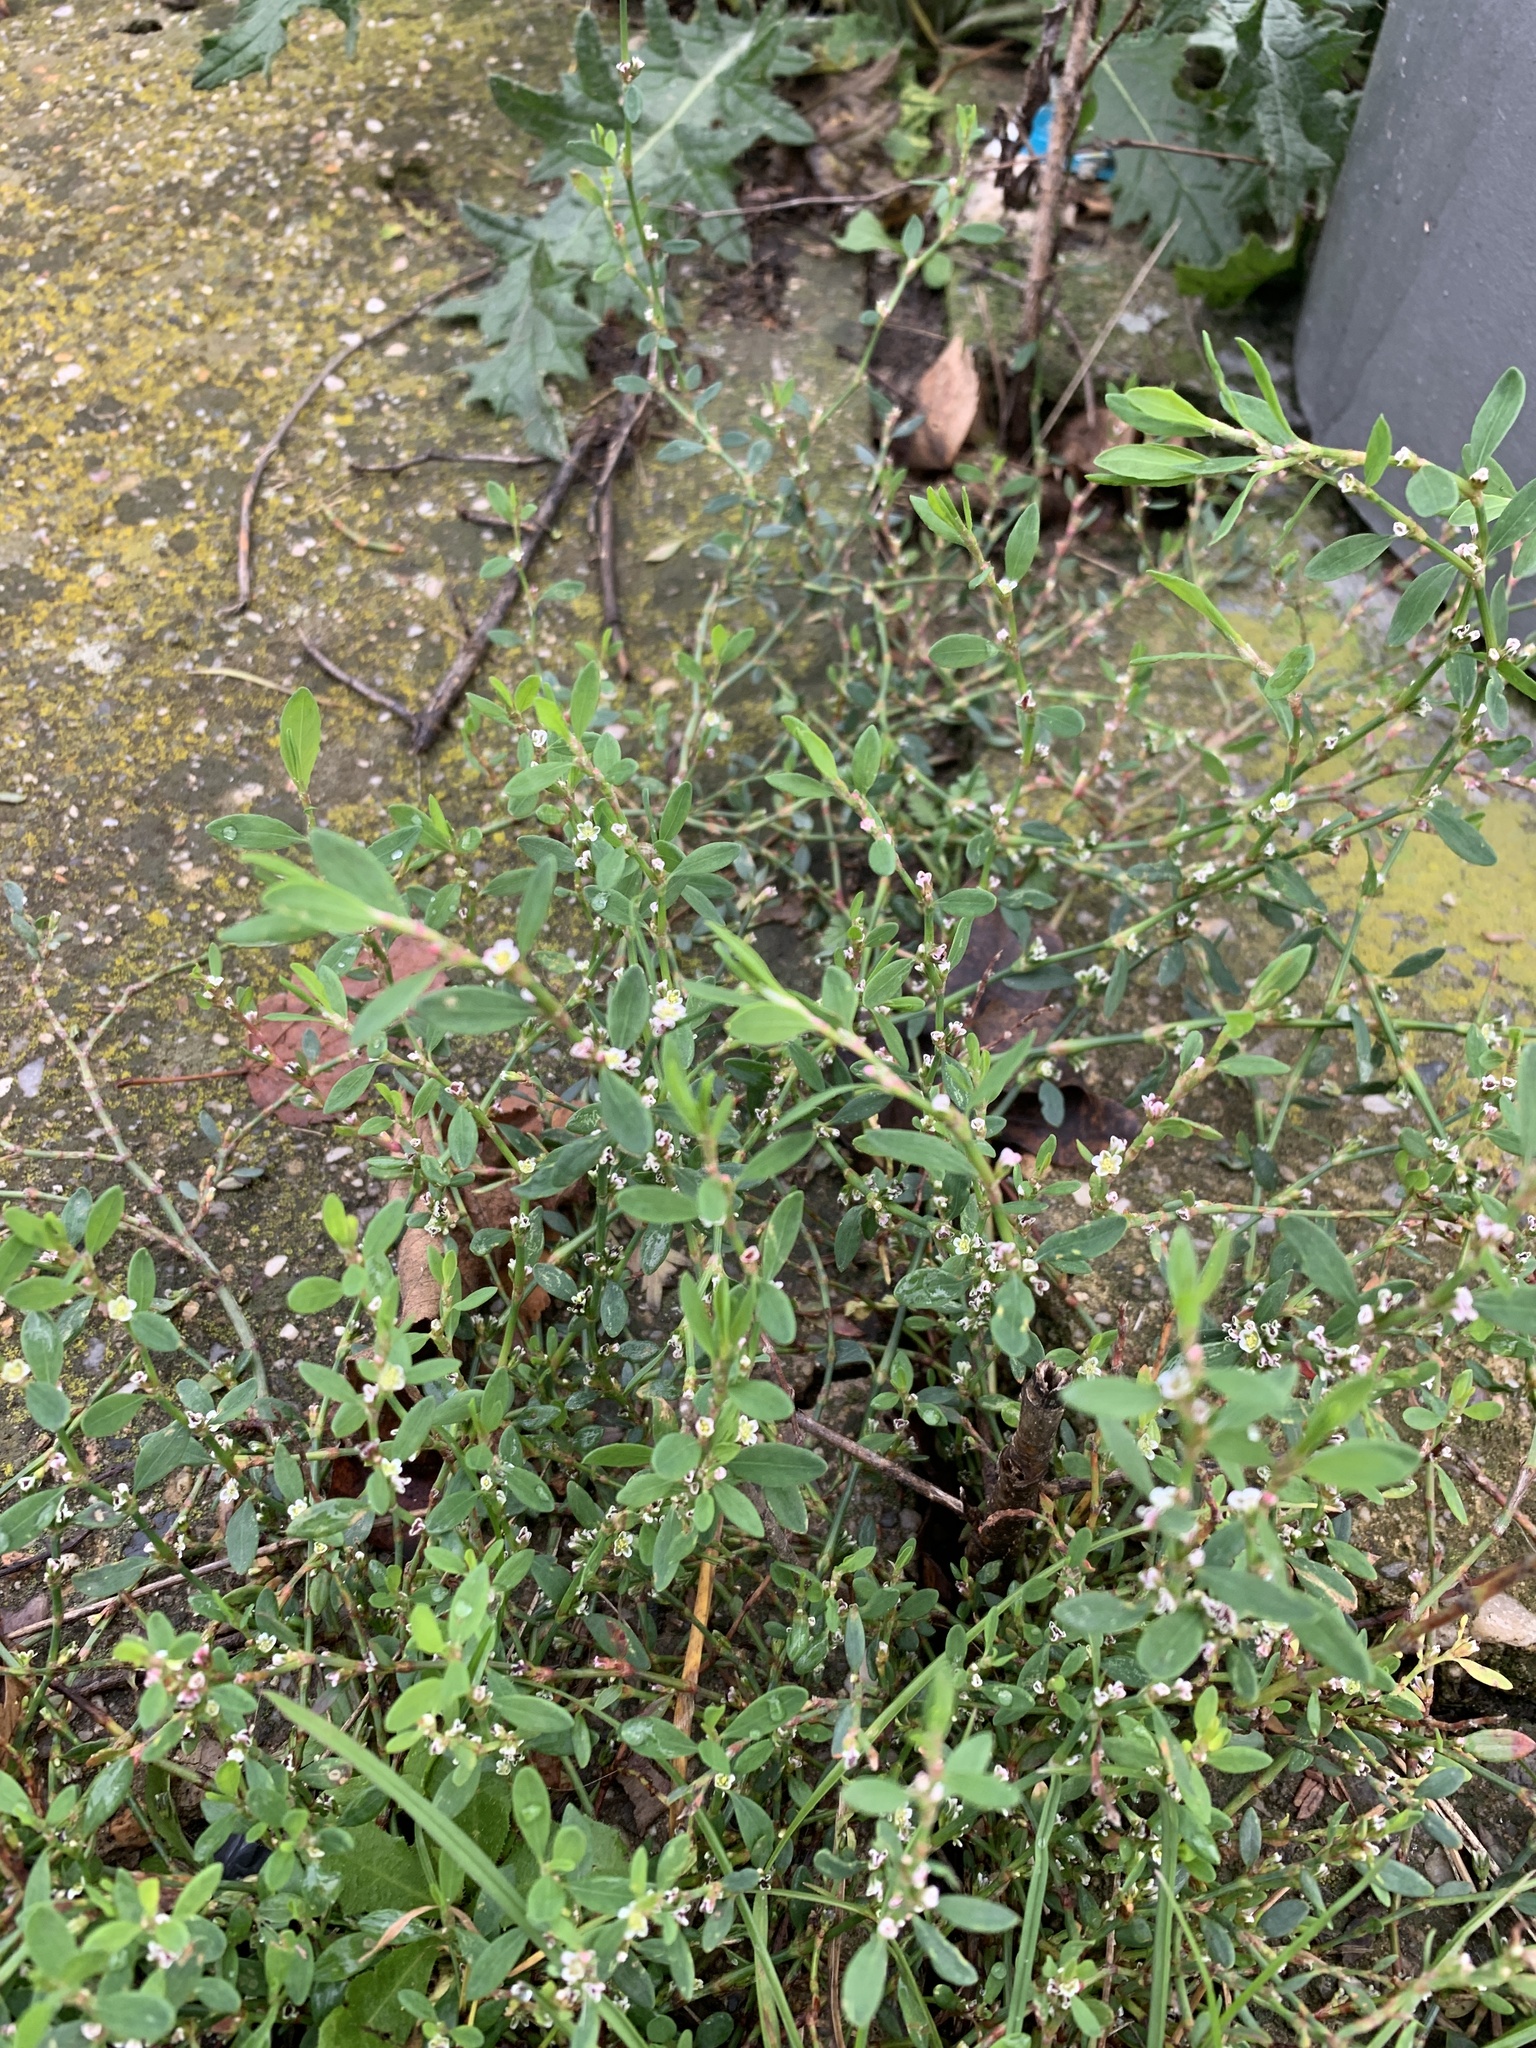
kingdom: Plantae
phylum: Tracheophyta
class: Magnoliopsida
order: Caryophyllales
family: Polygonaceae
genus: Polygonum
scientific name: Polygonum
